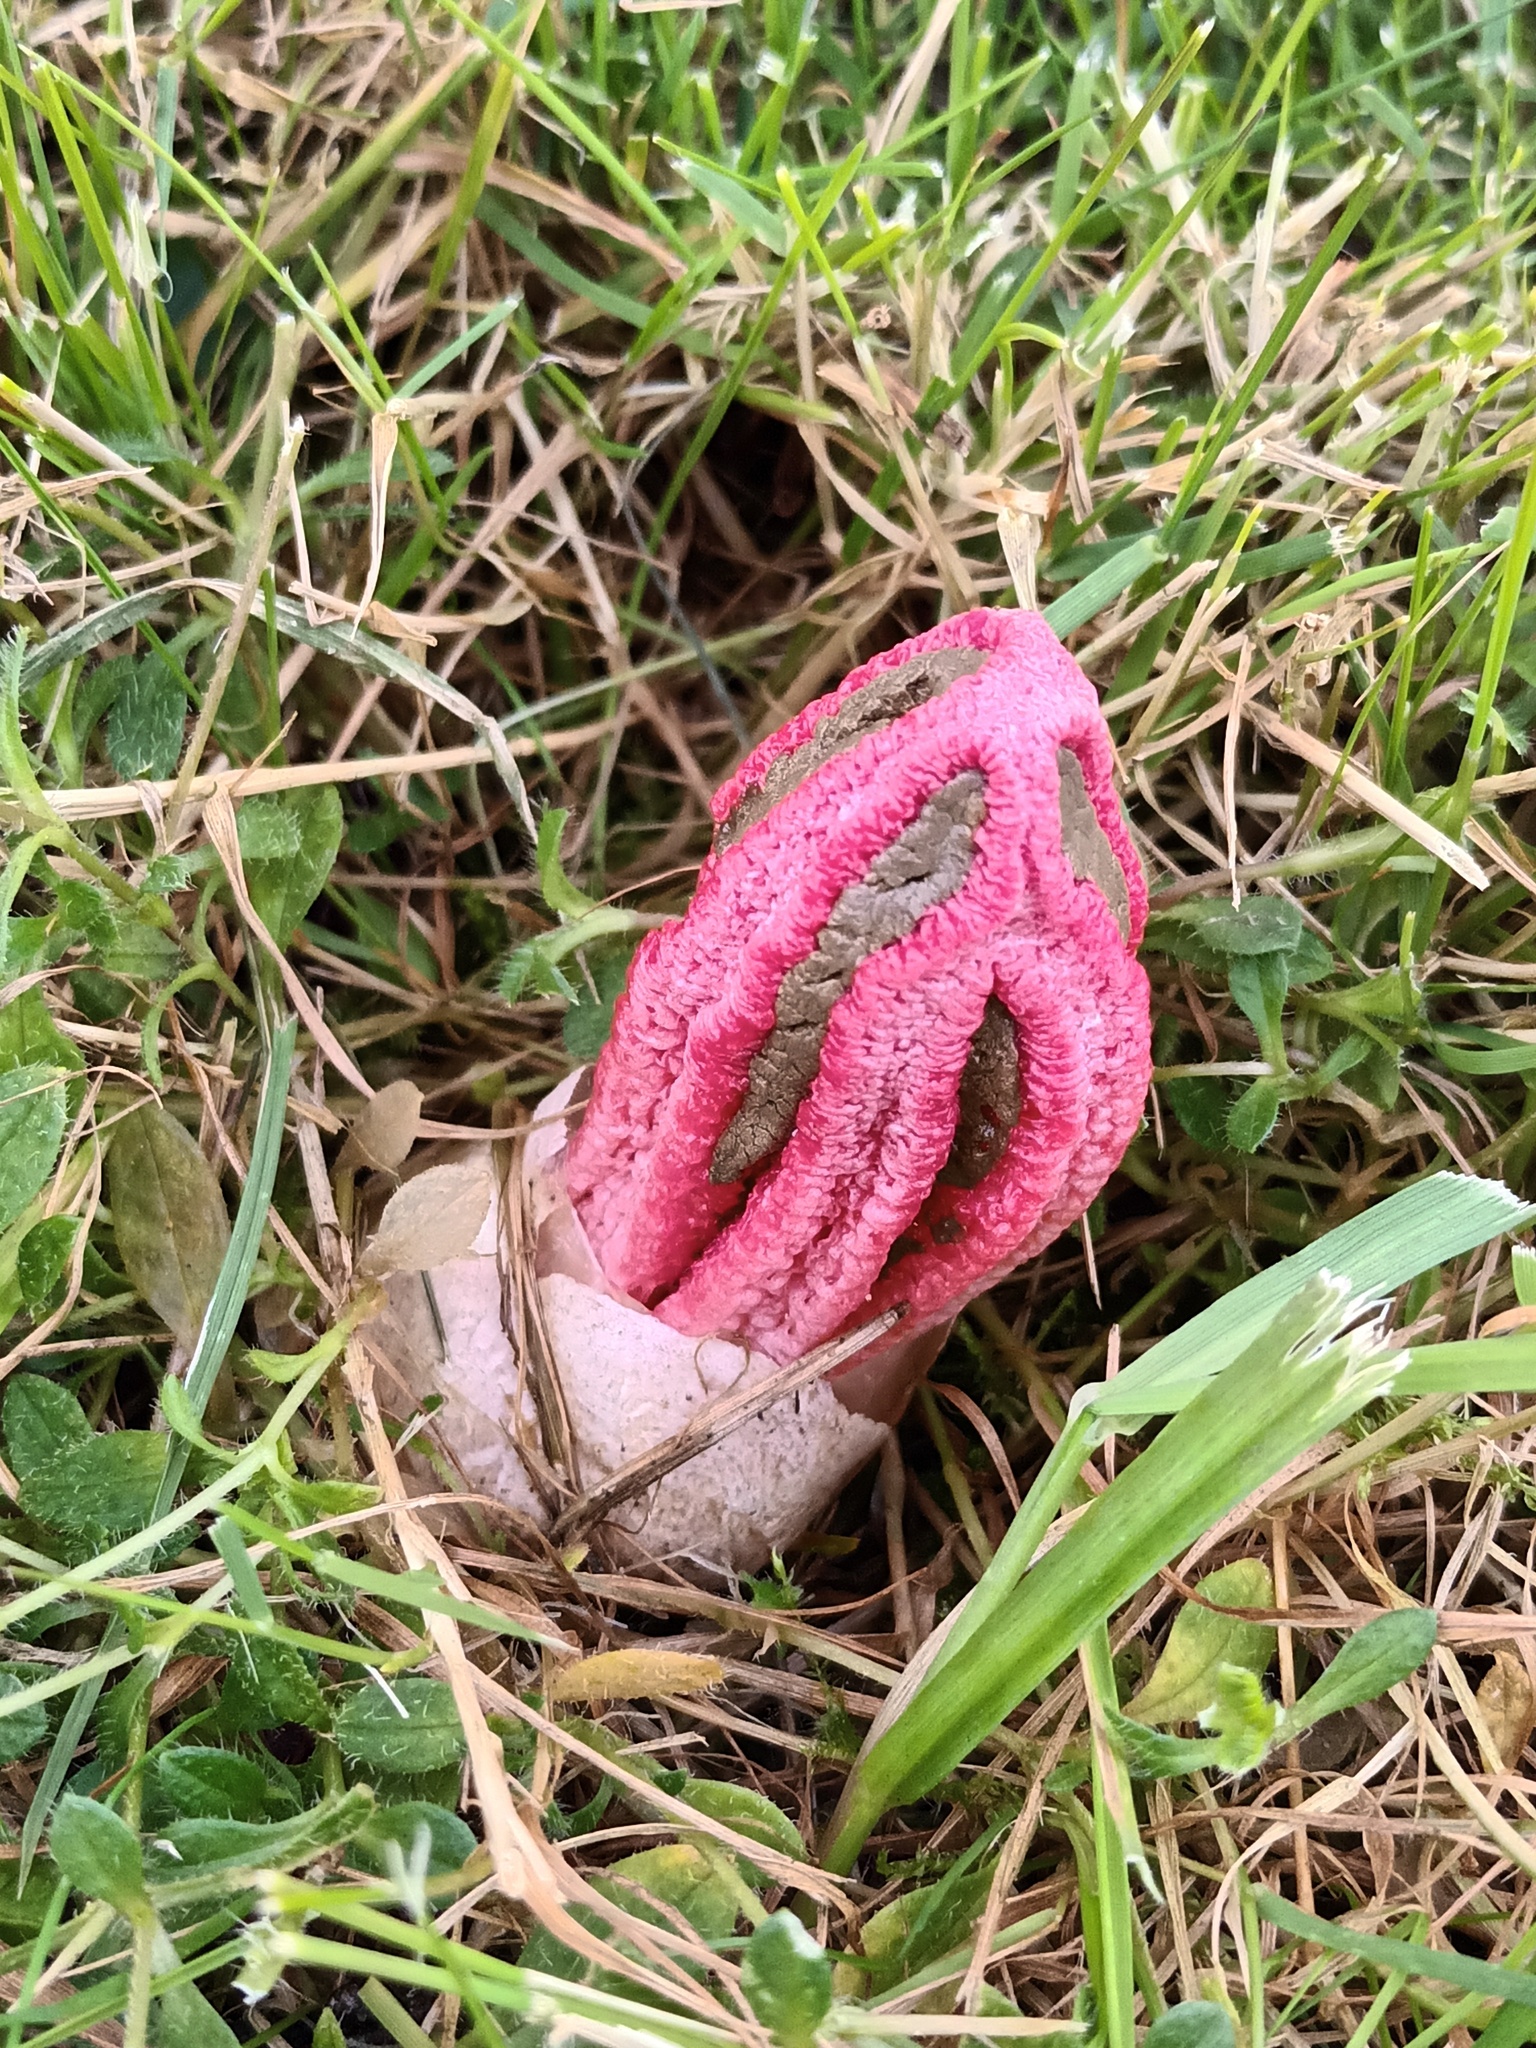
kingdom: Fungi
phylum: Basidiomycota
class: Agaricomycetes
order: Phallales
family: Phallaceae
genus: Clathrus
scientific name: Clathrus archeri
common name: Devil's fingers
